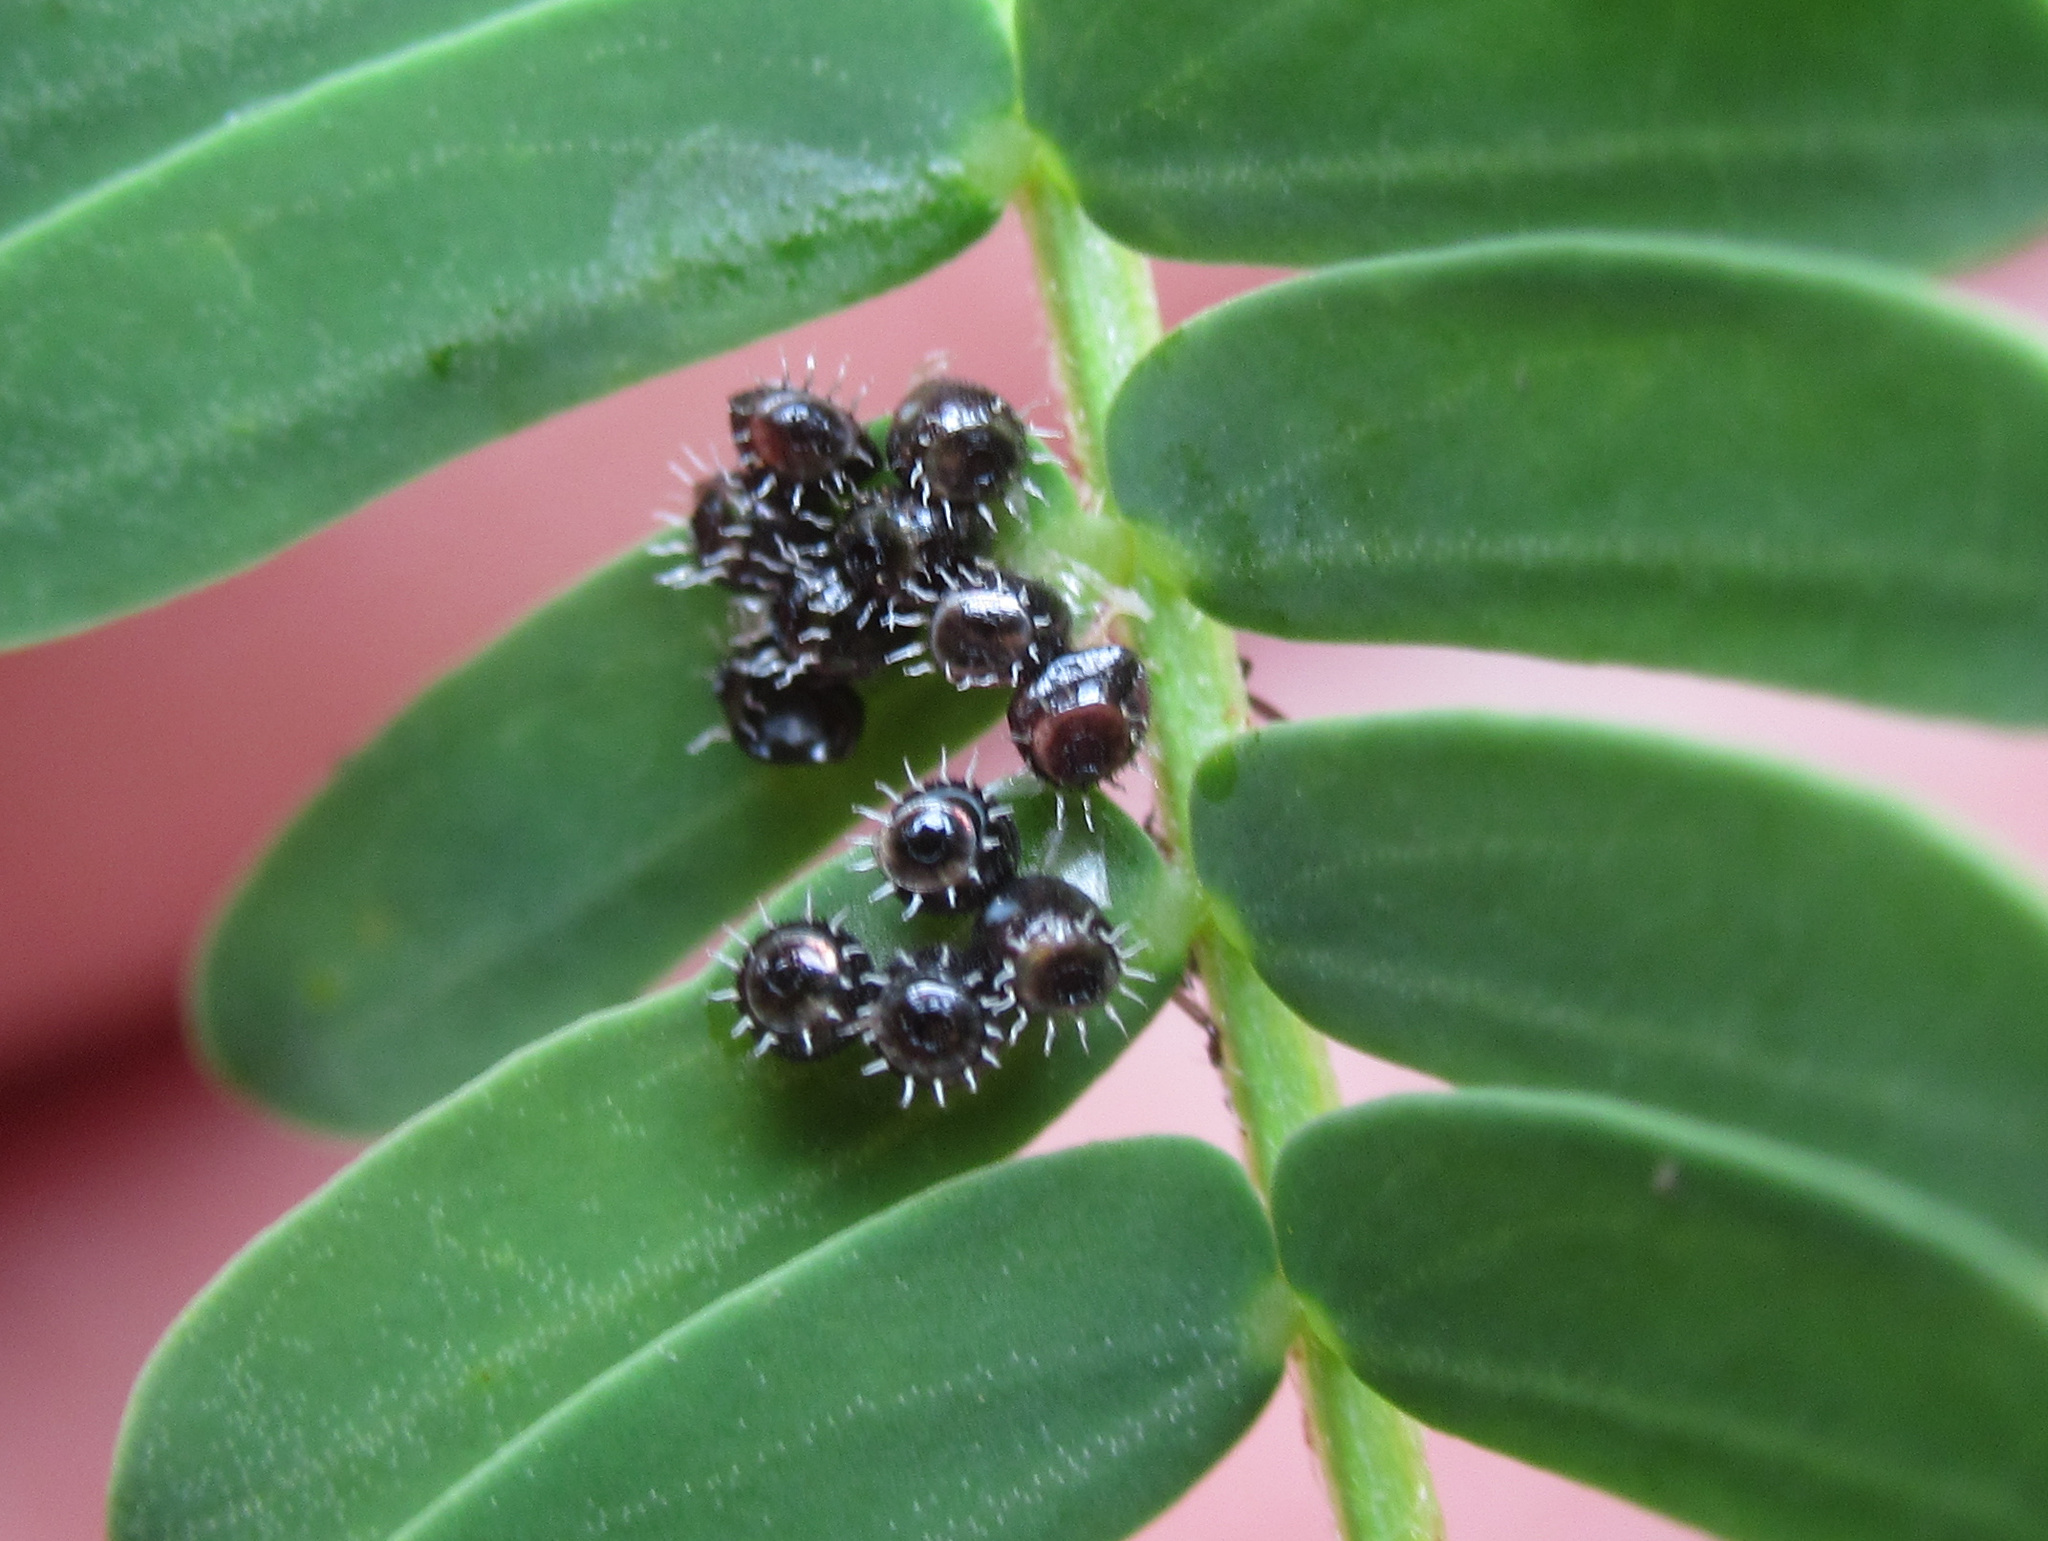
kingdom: Animalia
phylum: Arthropoda
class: Insecta
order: Hemiptera
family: Pentatomidae
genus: Oechalia
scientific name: Oechalia schellenbergii
